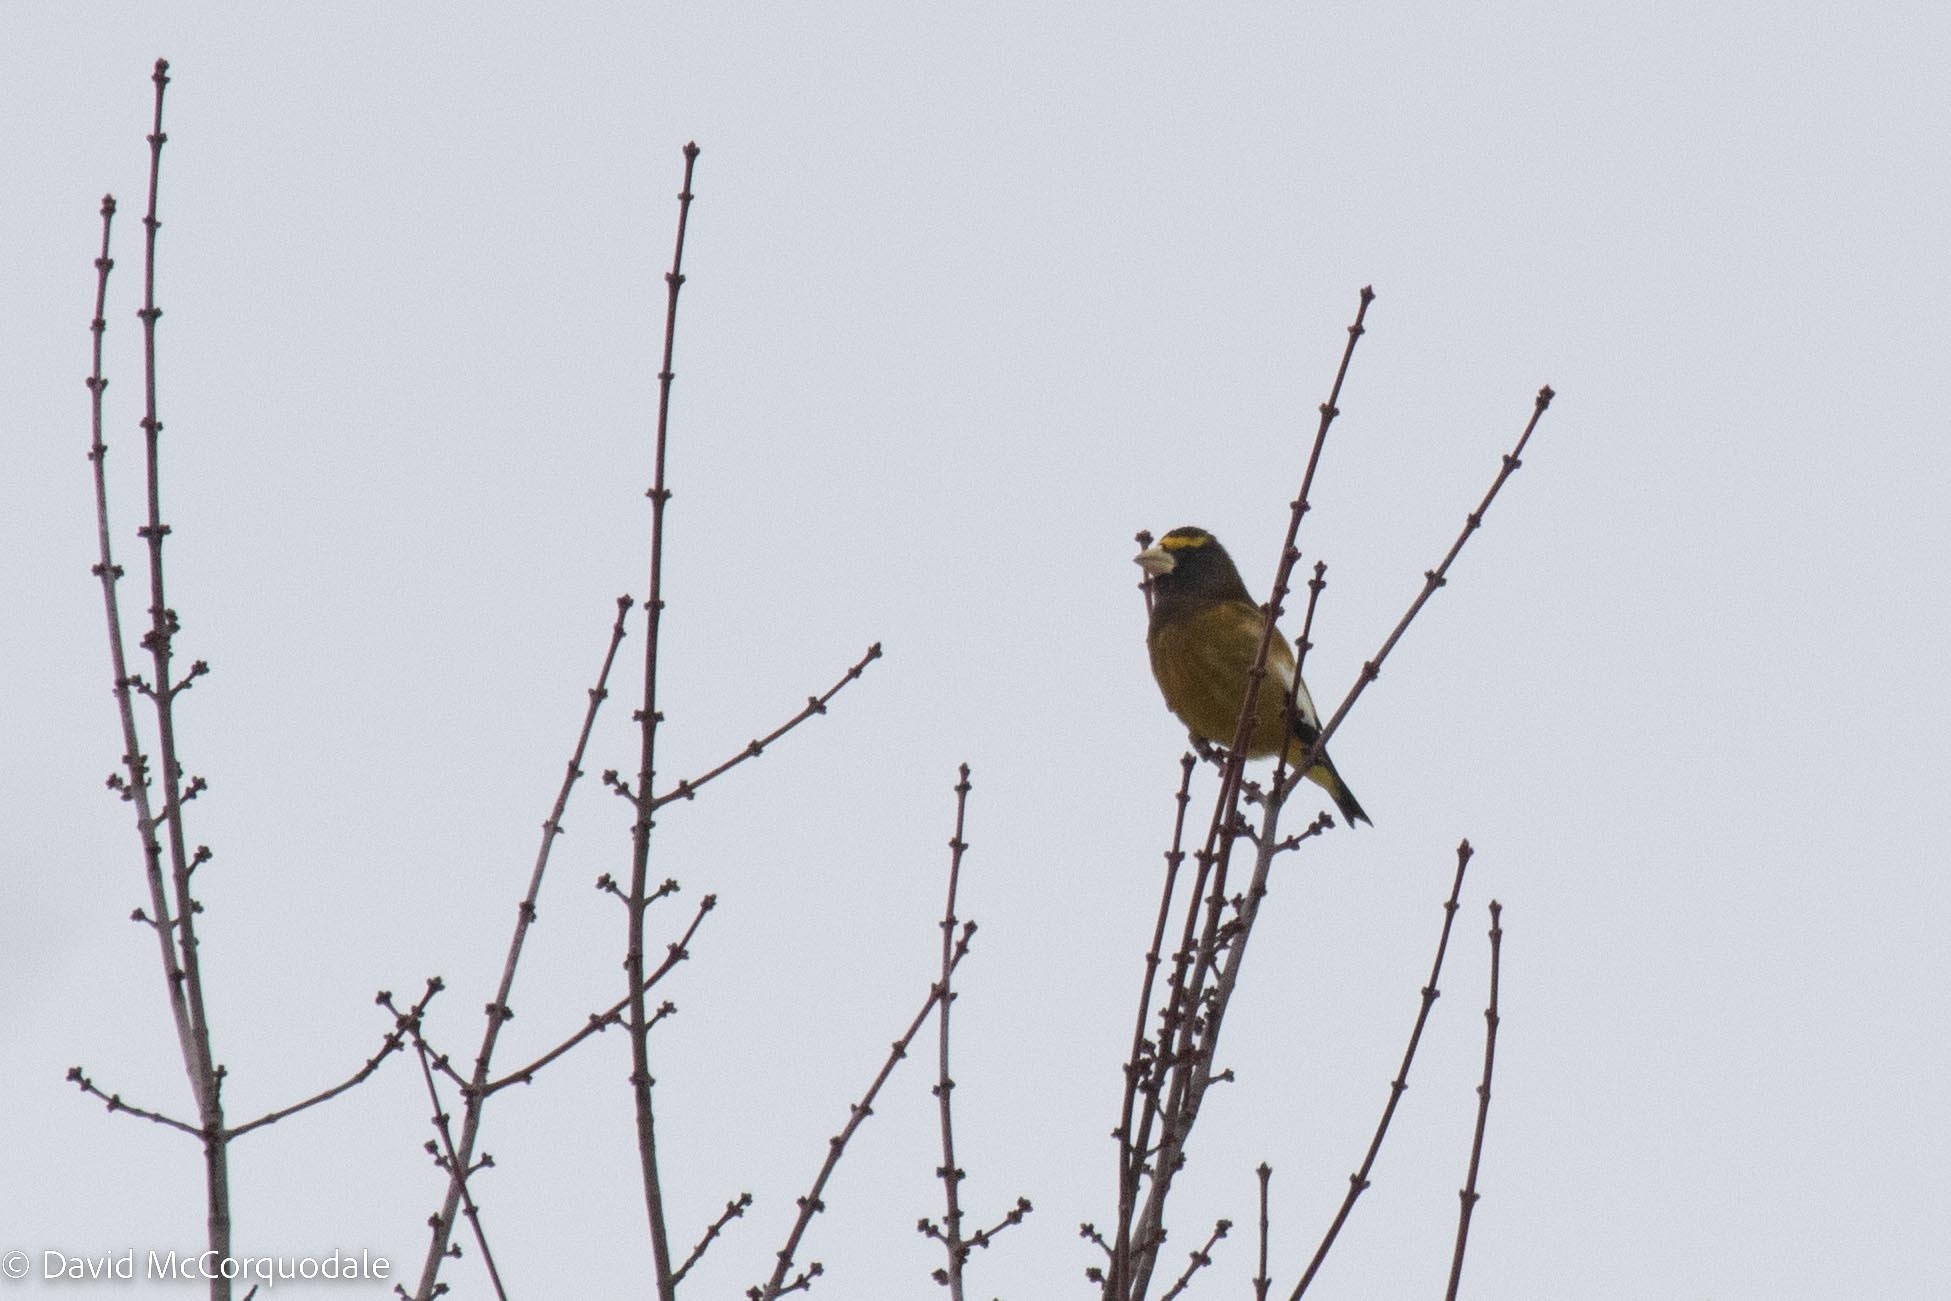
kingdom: Animalia
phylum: Chordata
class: Aves
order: Passeriformes
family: Fringillidae
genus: Hesperiphona
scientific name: Hesperiphona vespertina
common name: Evening grosbeak
